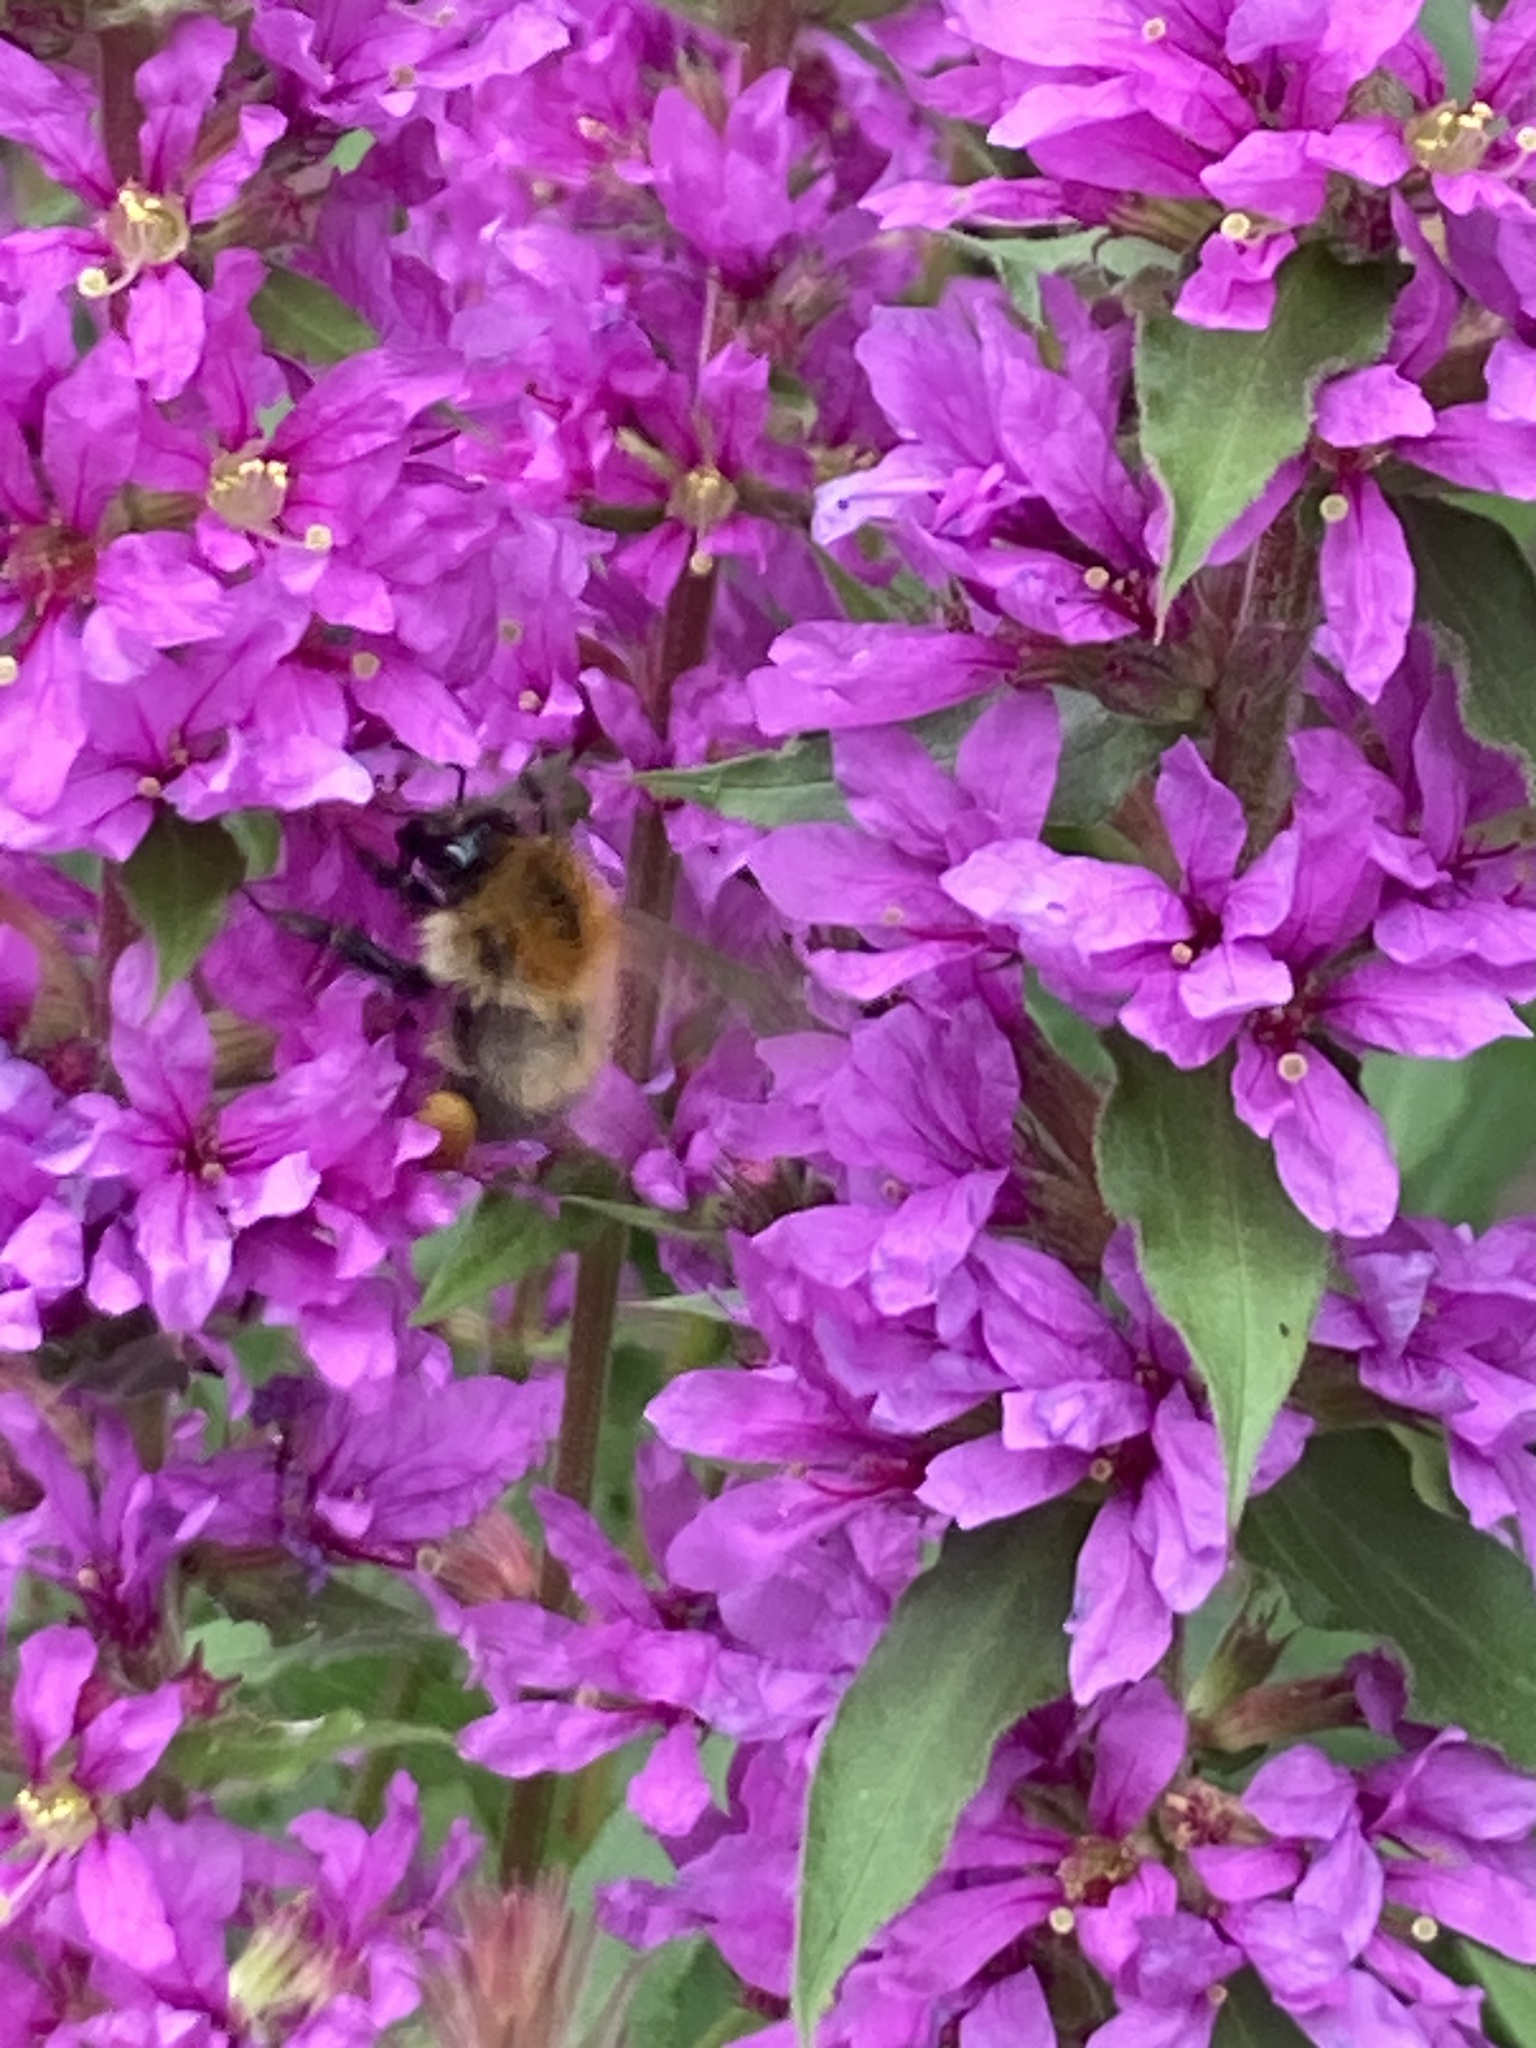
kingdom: Animalia
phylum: Arthropoda
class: Insecta
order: Hymenoptera
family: Apidae
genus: Bombus
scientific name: Bombus pascuorum
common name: Common carder bee
